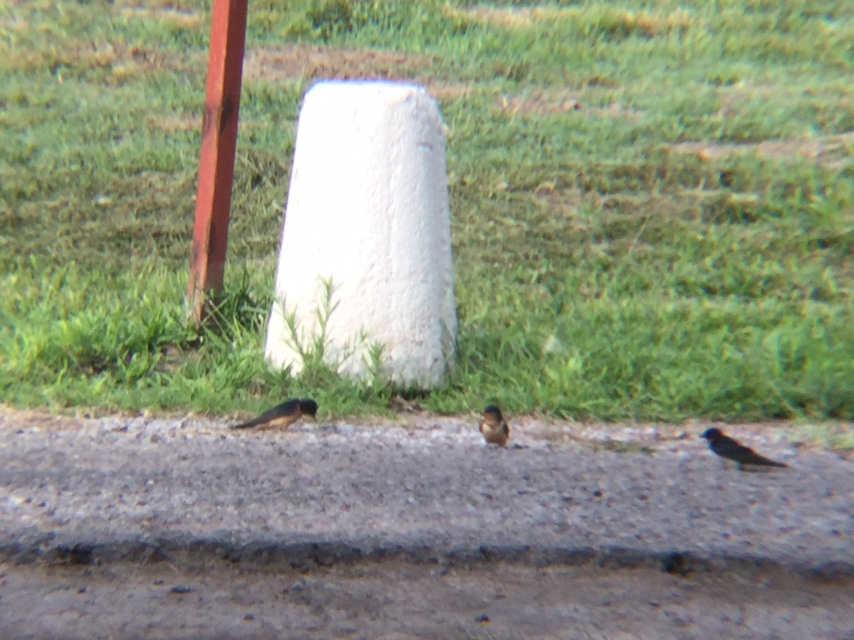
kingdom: Animalia
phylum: Chordata
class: Aves
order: Passeriformes
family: Hirundinidae
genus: Hirundo
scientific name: Hirundo rustica
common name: Barn swallow
